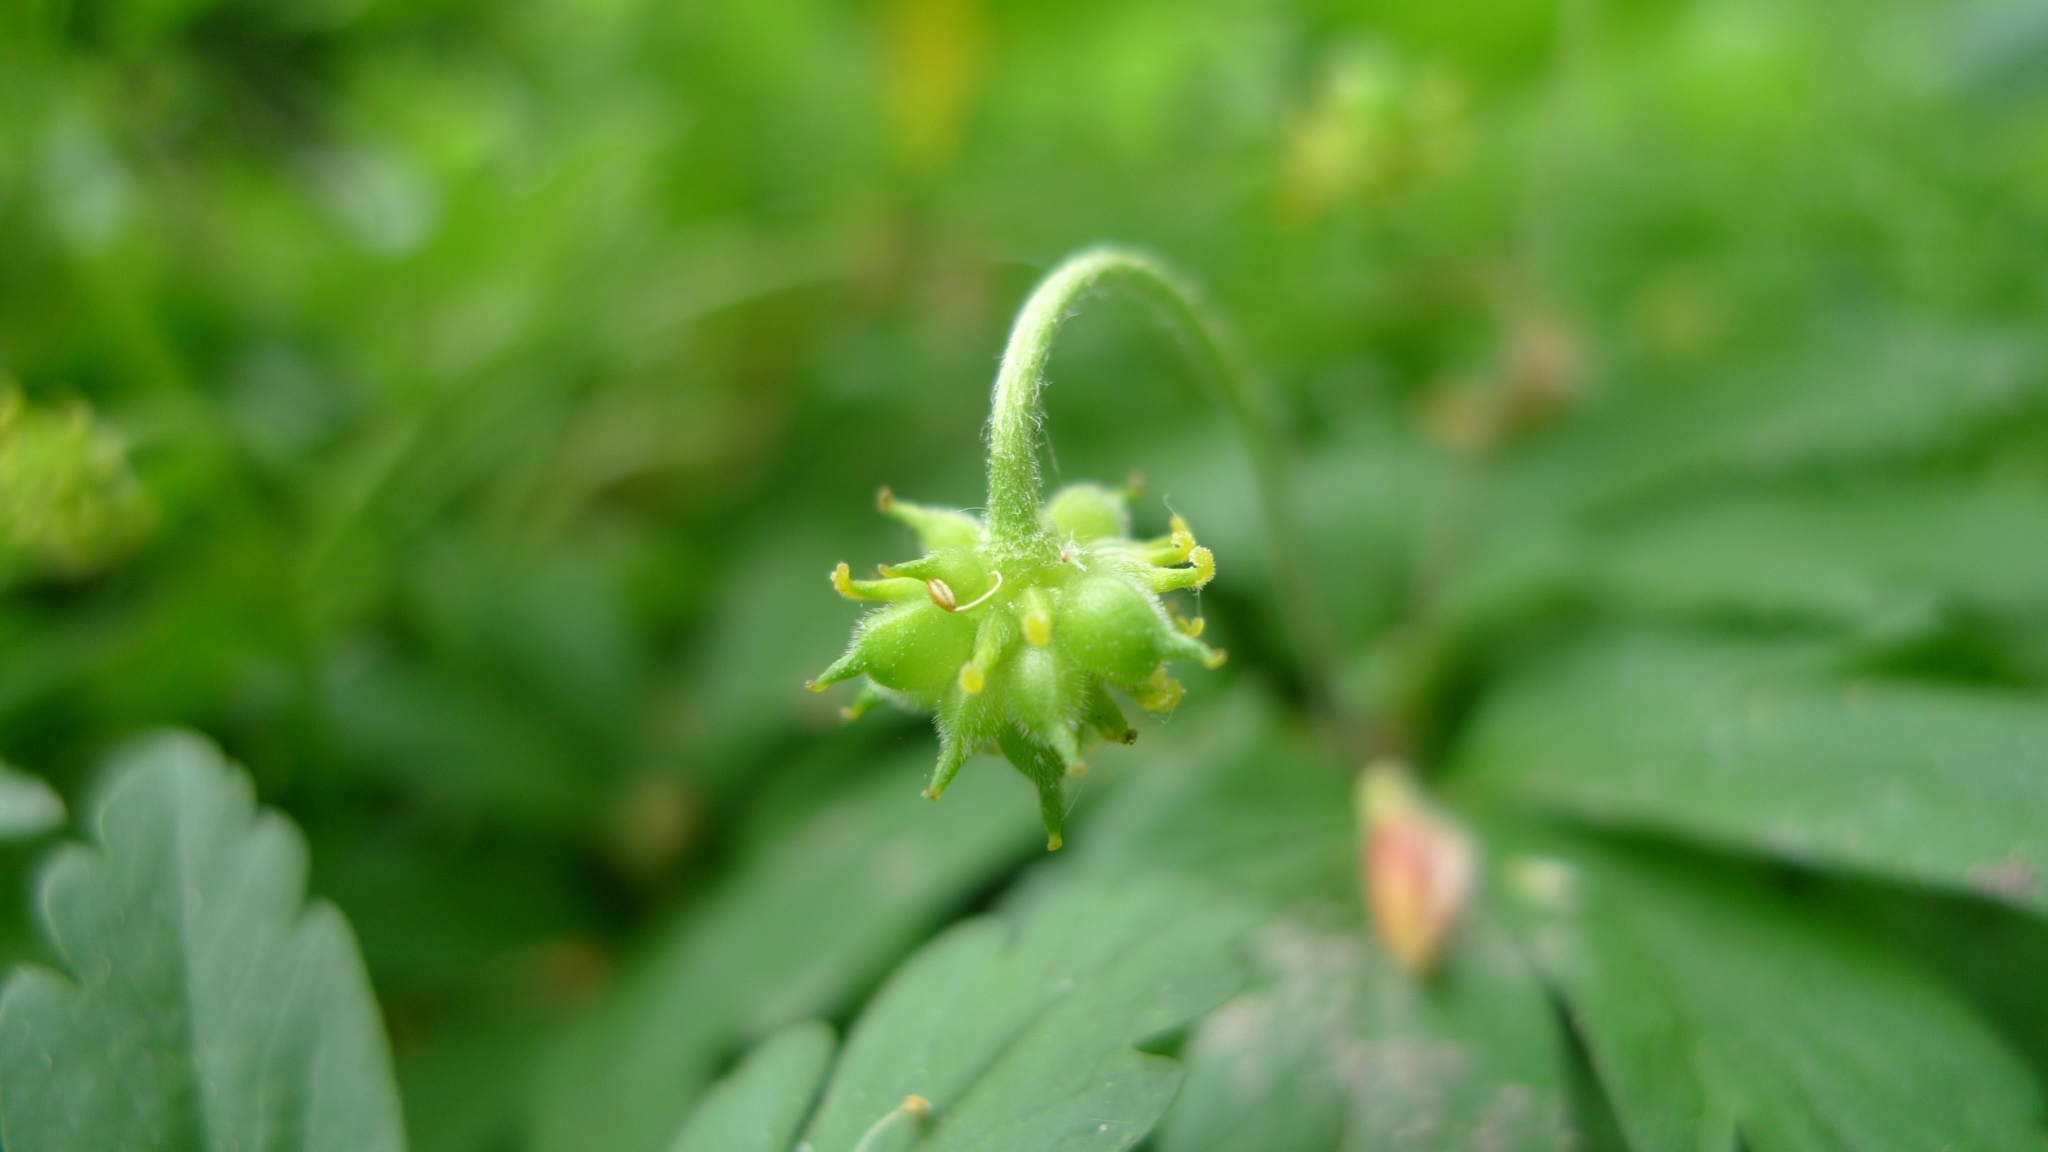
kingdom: Plantae
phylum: Tracheophyta
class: Magnoliopsida
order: Ranunculales
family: Ranunculaceae
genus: Anemone
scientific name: Anemone ranunculoides
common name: Yellow anemone
